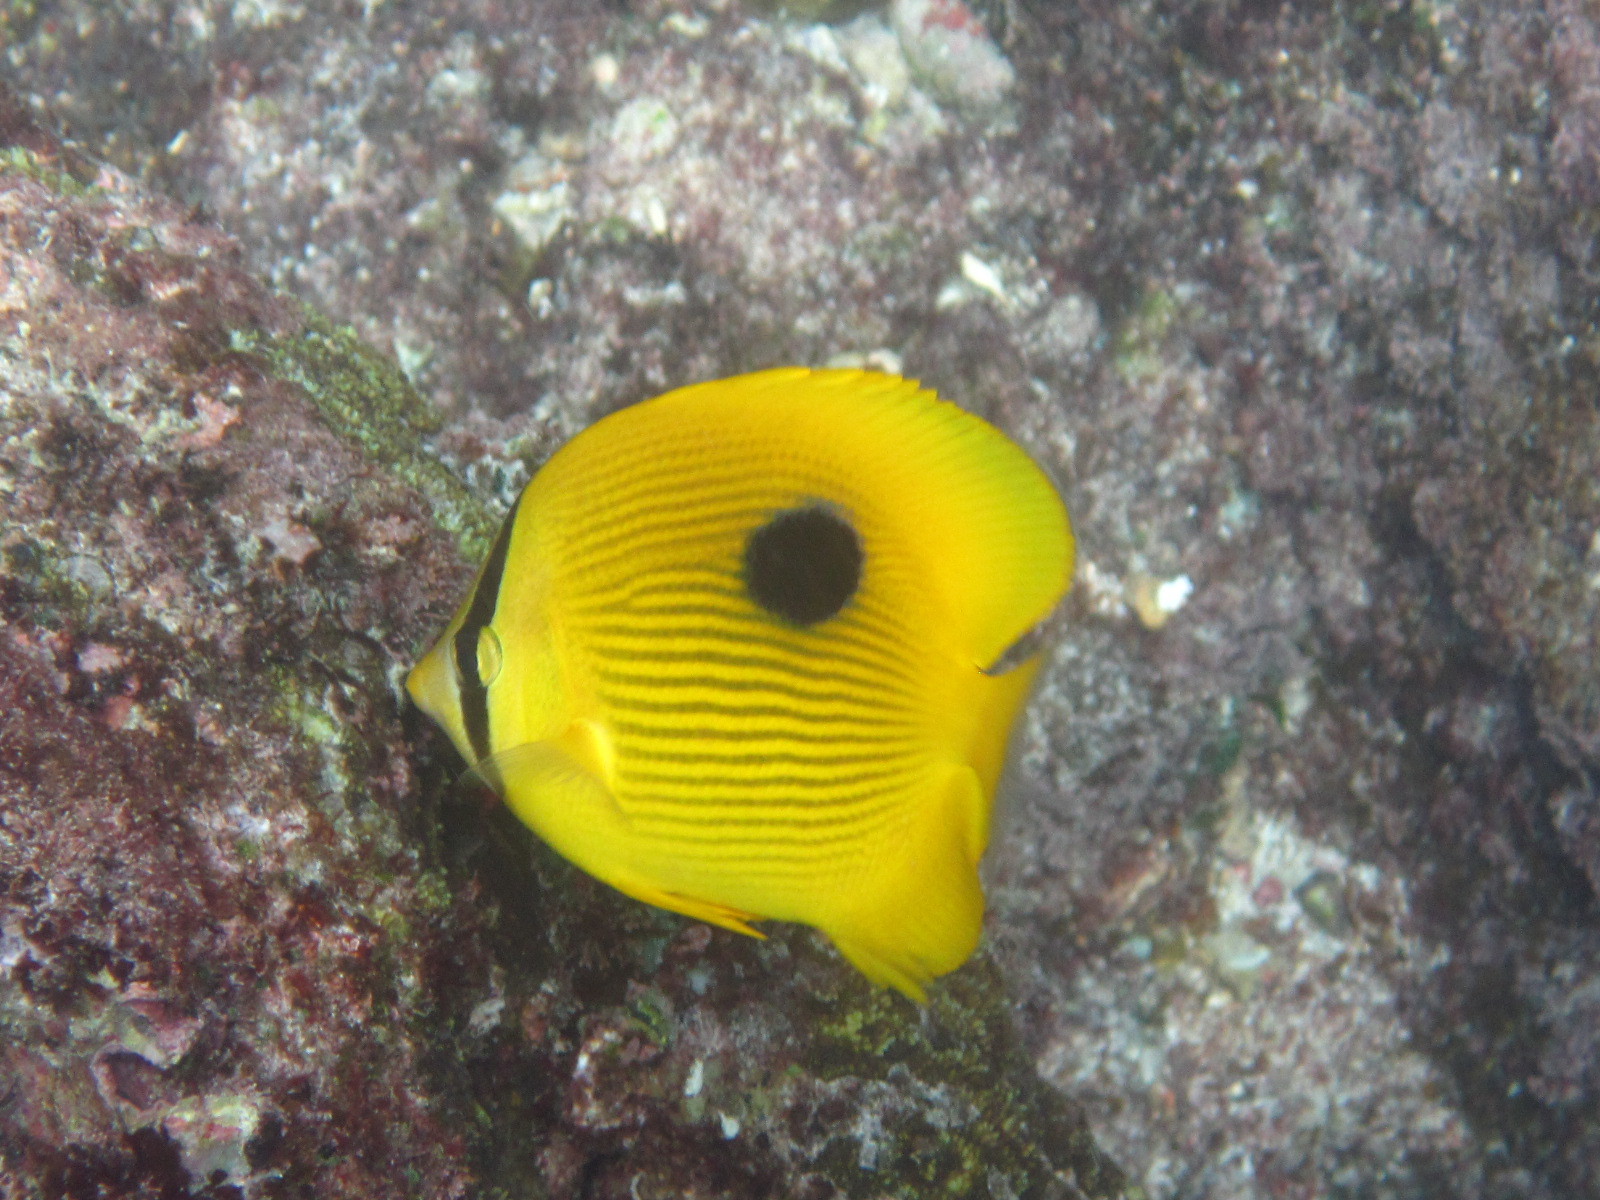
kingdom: Animalia
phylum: Chordata
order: Perciformes
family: Chaetodontidae
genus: Chaetodon
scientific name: Chaetodon zanzibarensis
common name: Zanzibar butterflyfish
